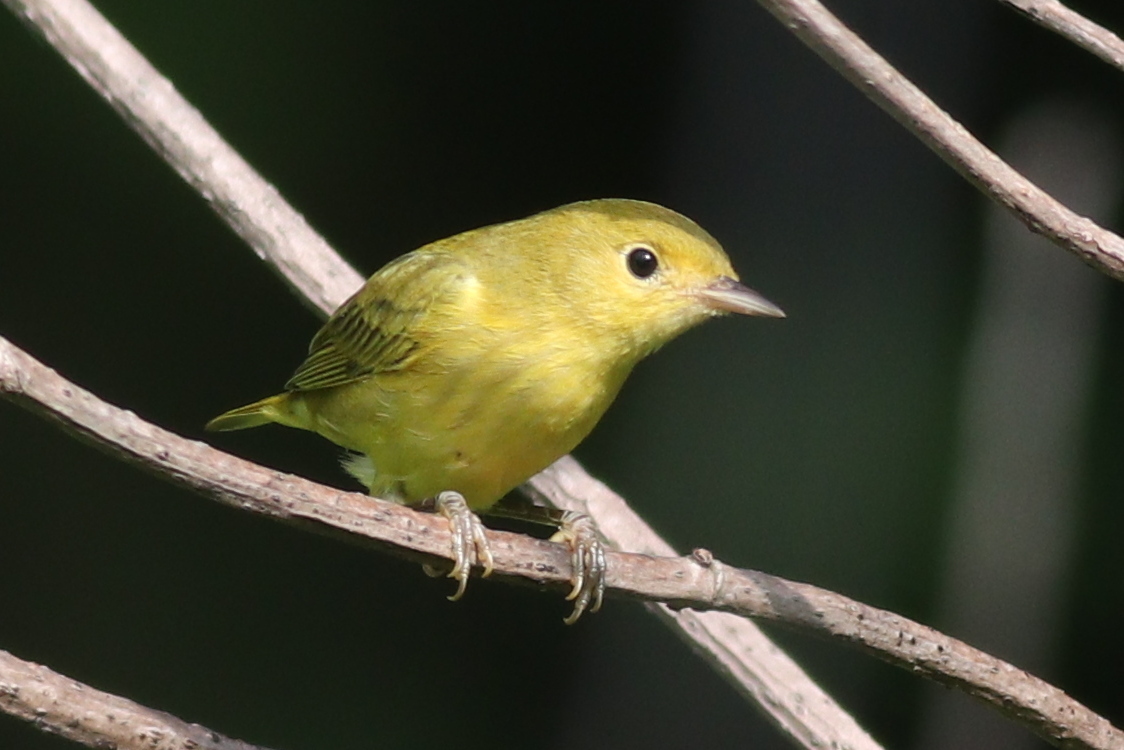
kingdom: Animalia
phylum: Chordata
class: Aves
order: Passeriformes
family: Parulidae
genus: Setophaga
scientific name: Setophaga petechia
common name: Yellow warbler
